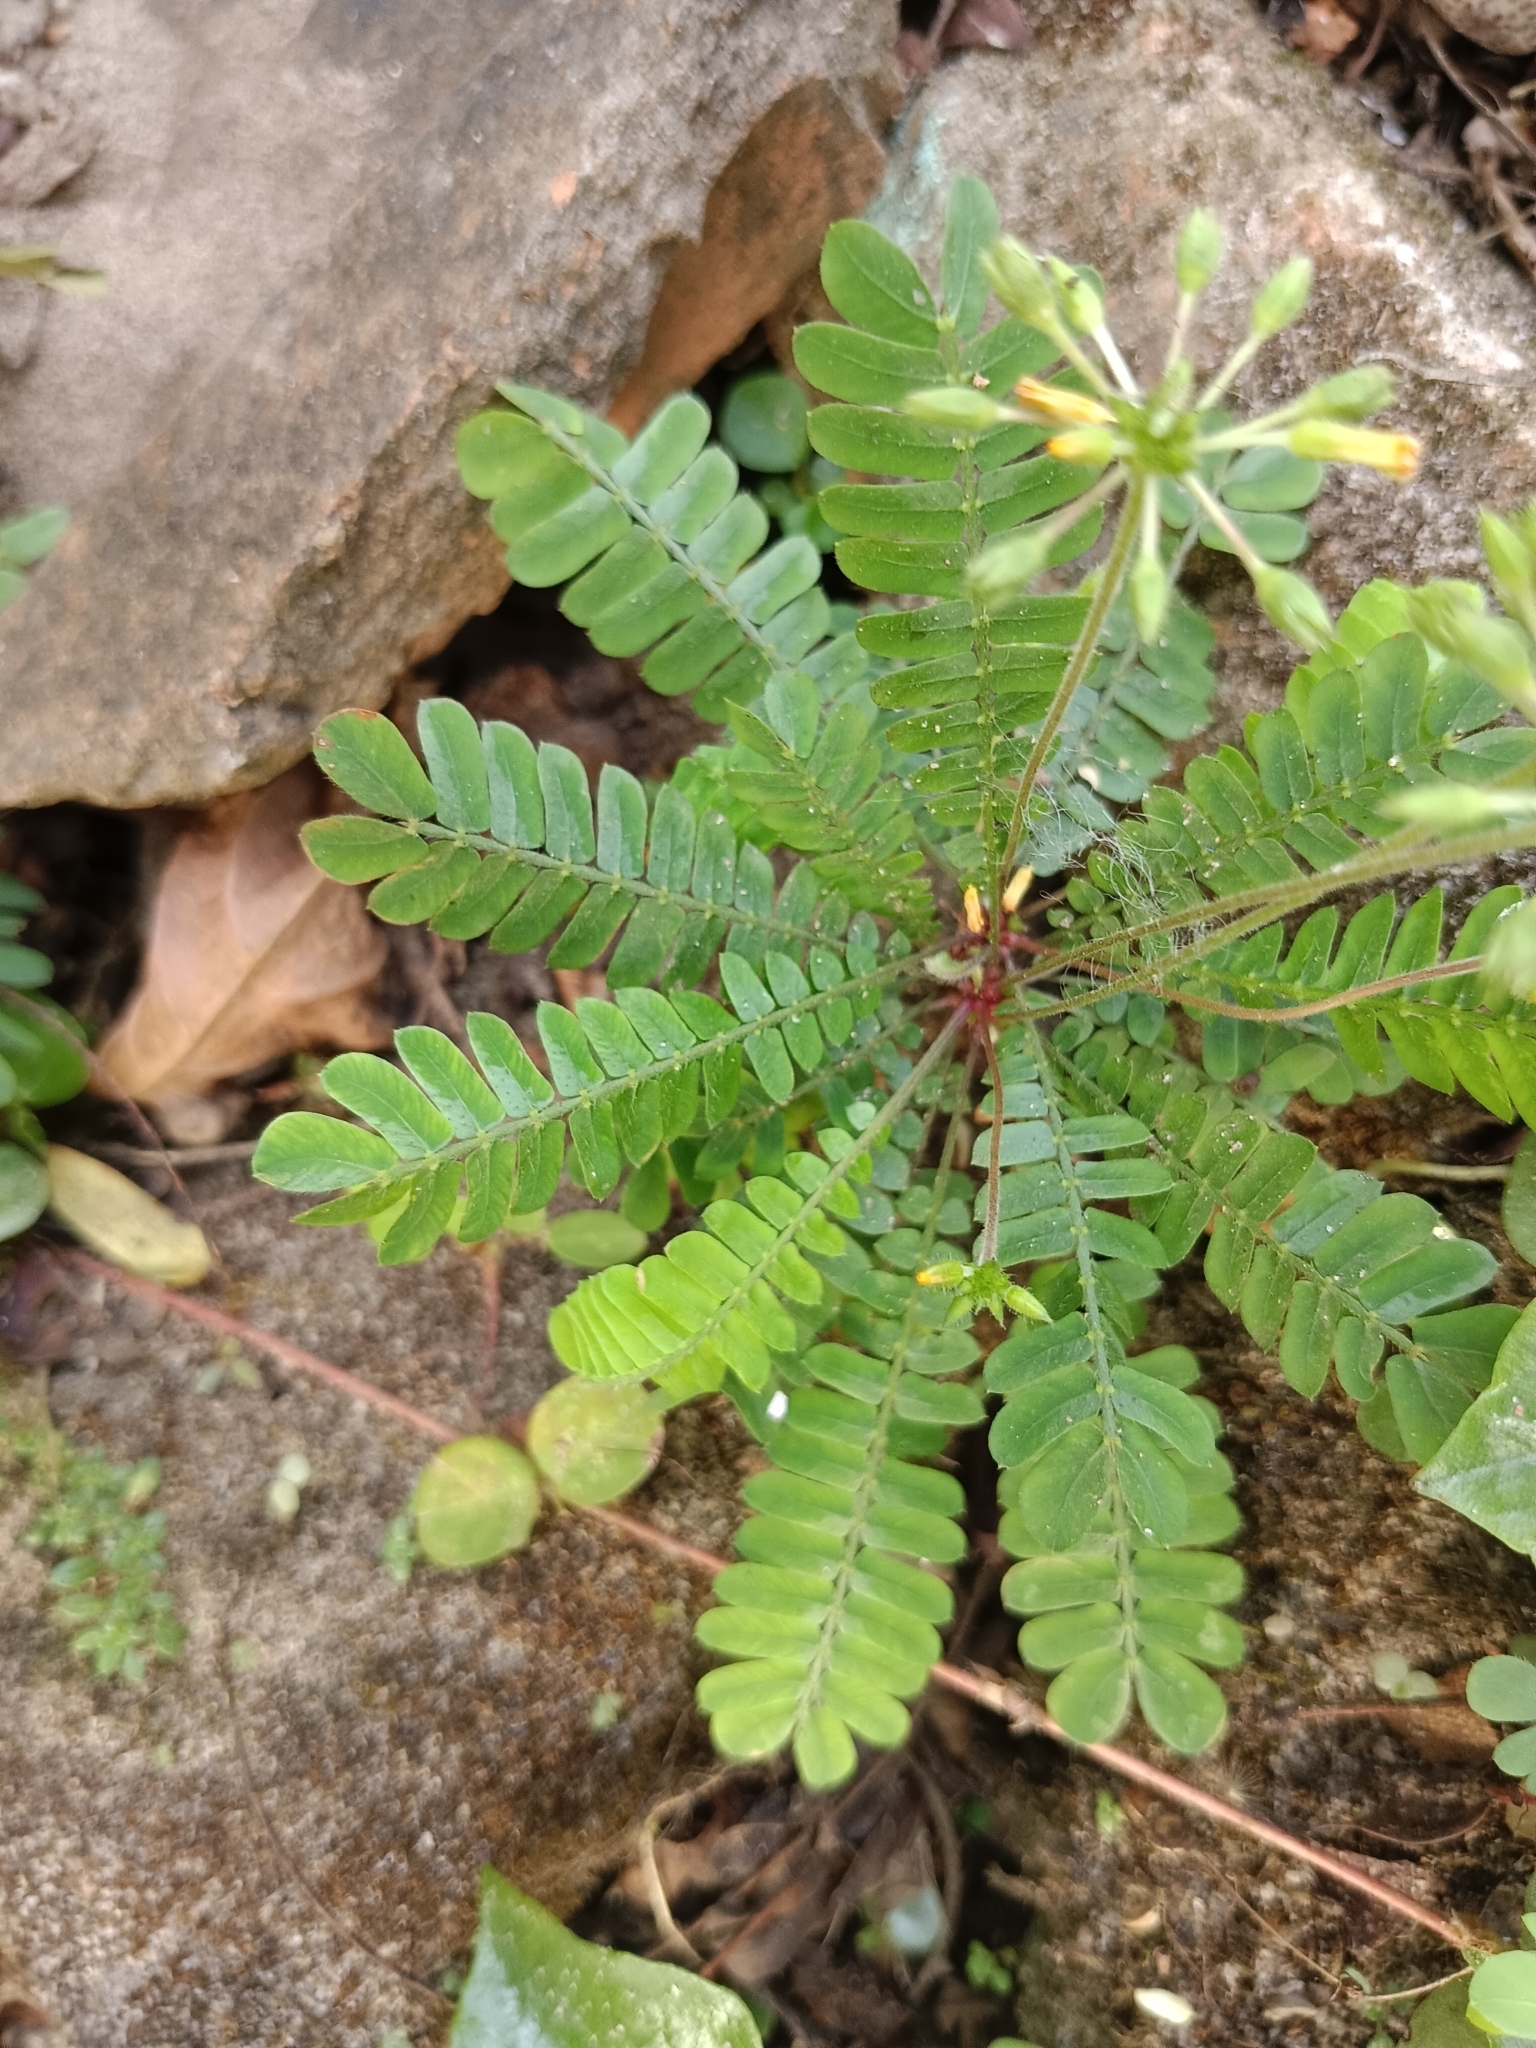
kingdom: Plantae
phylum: Tracheophyta
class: Magnoliopsida
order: Oxalidales
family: Oxalidaceae
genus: Biophytum
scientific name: Biophytum sensitivum
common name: Lifeplant
